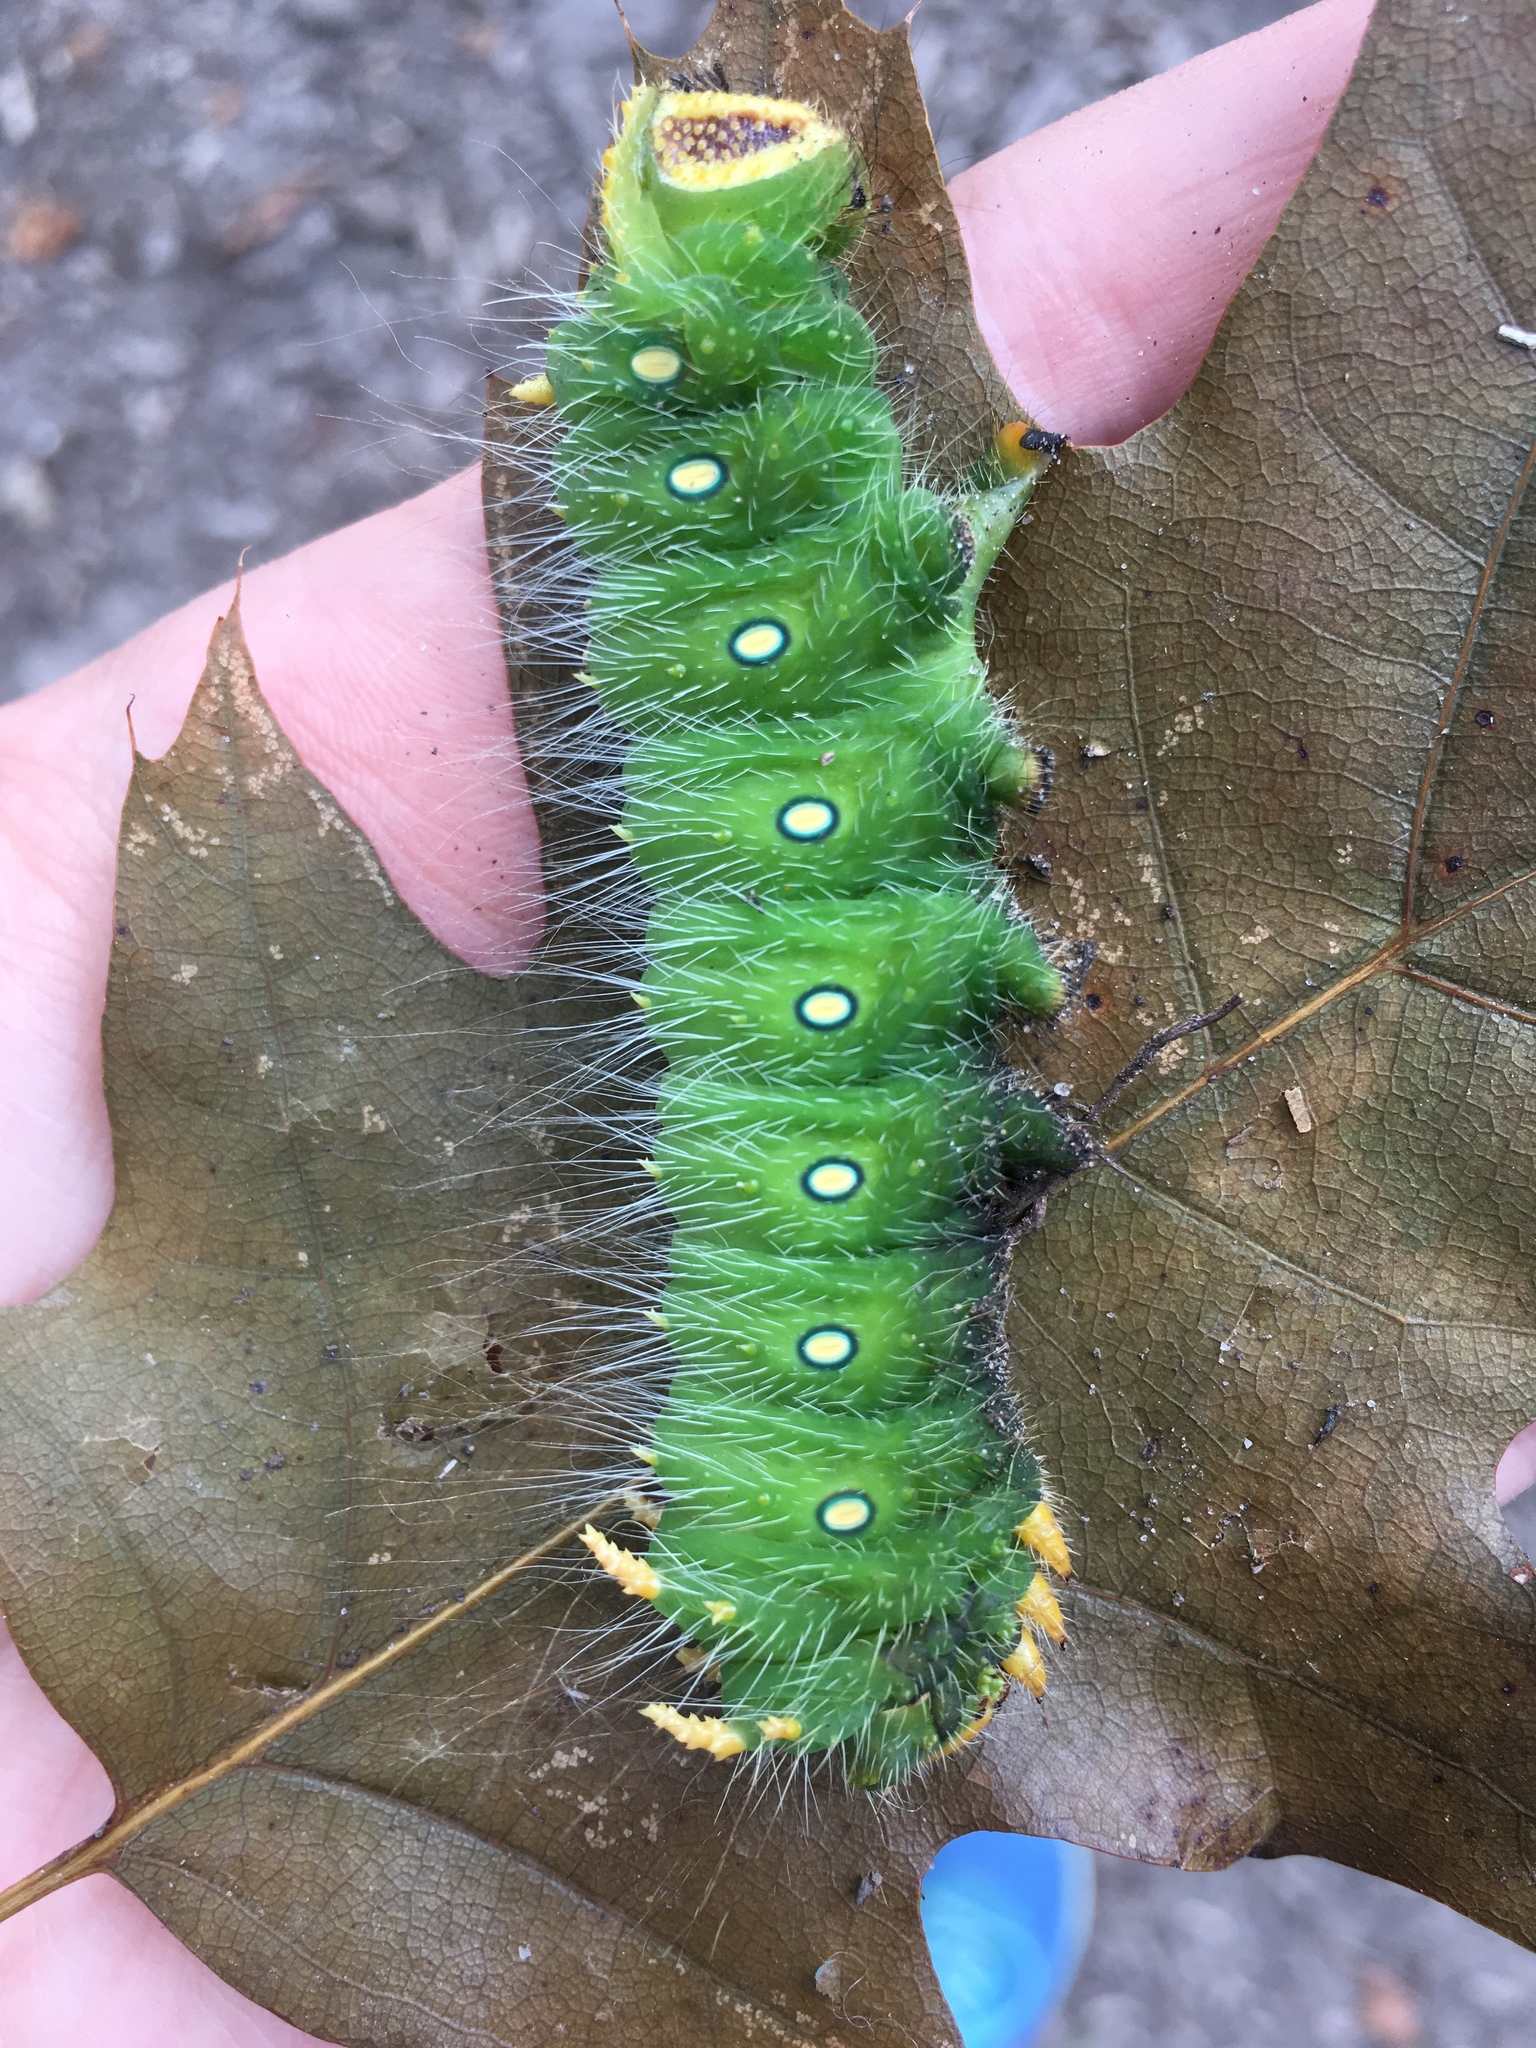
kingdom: Animalia
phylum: Arthropoda
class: Insecta
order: Lepidoptera
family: Saturniidae
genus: Eacles
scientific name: Eacles imperialis
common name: Imperial moth
